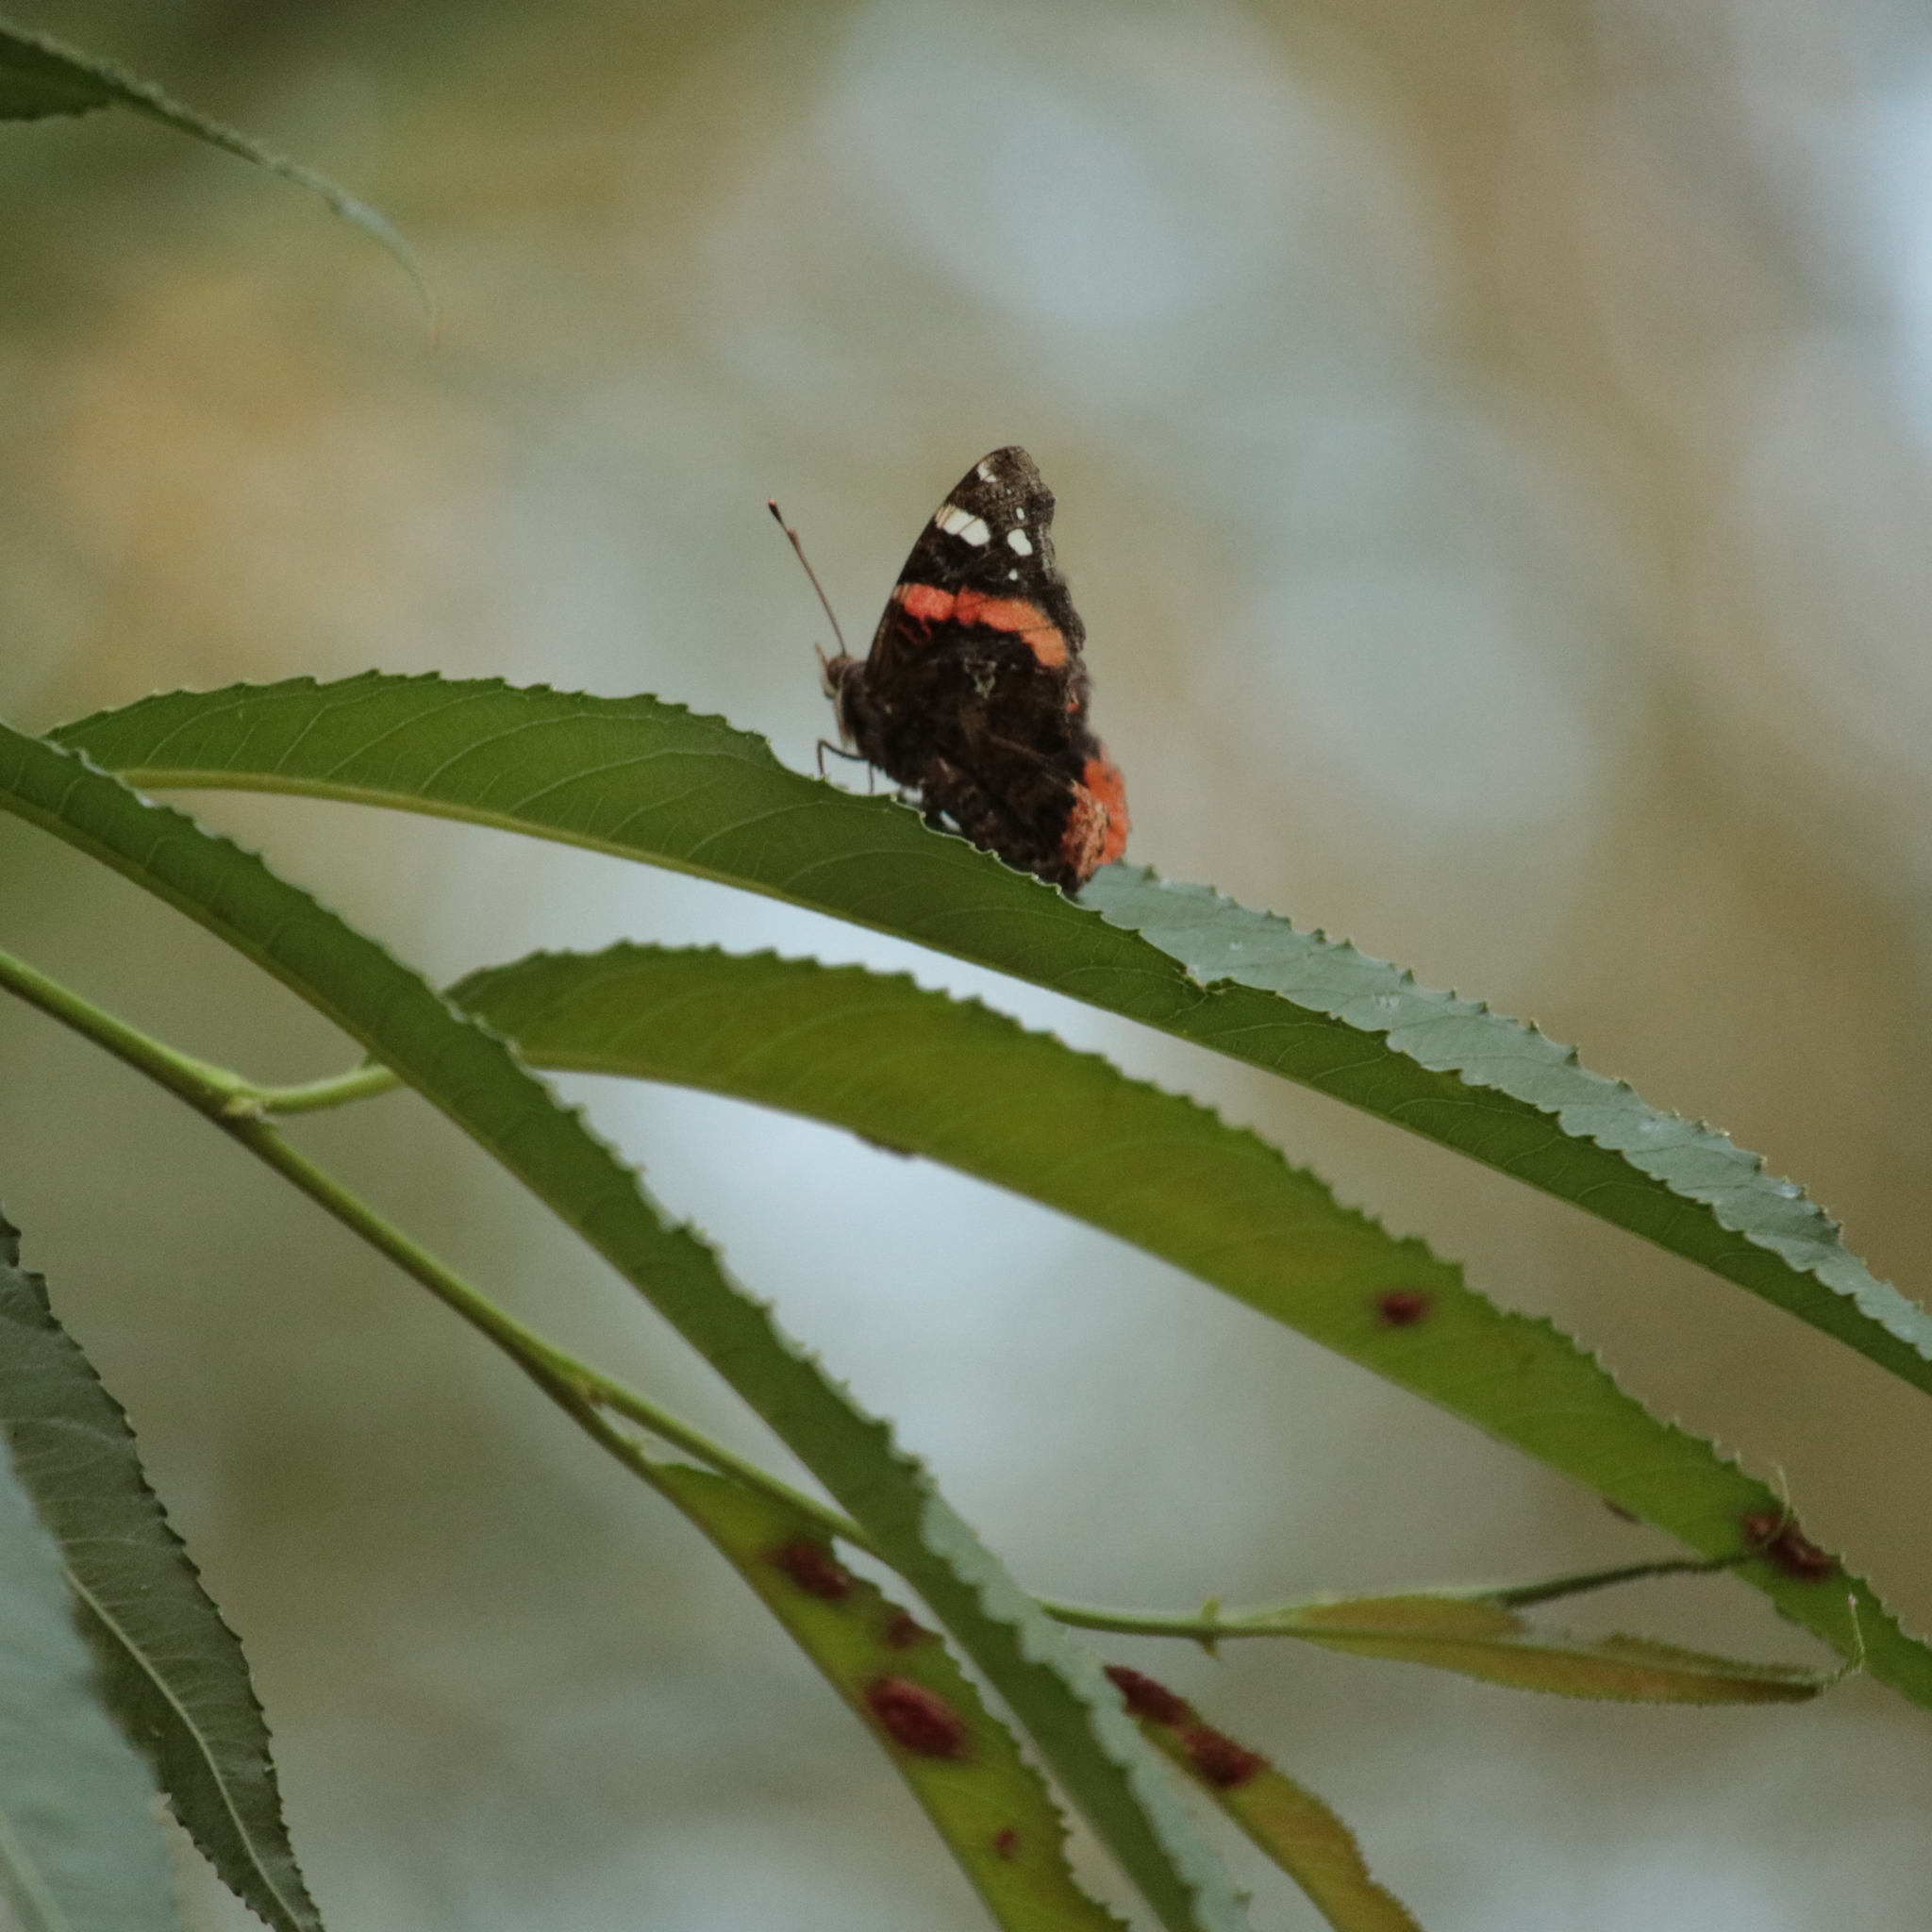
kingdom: Animalia
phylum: Arthropoda
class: Insecta
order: Lepidoptera
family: Nymphalidae
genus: Vanessa
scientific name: Vanessa atalanta
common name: Red admiral
